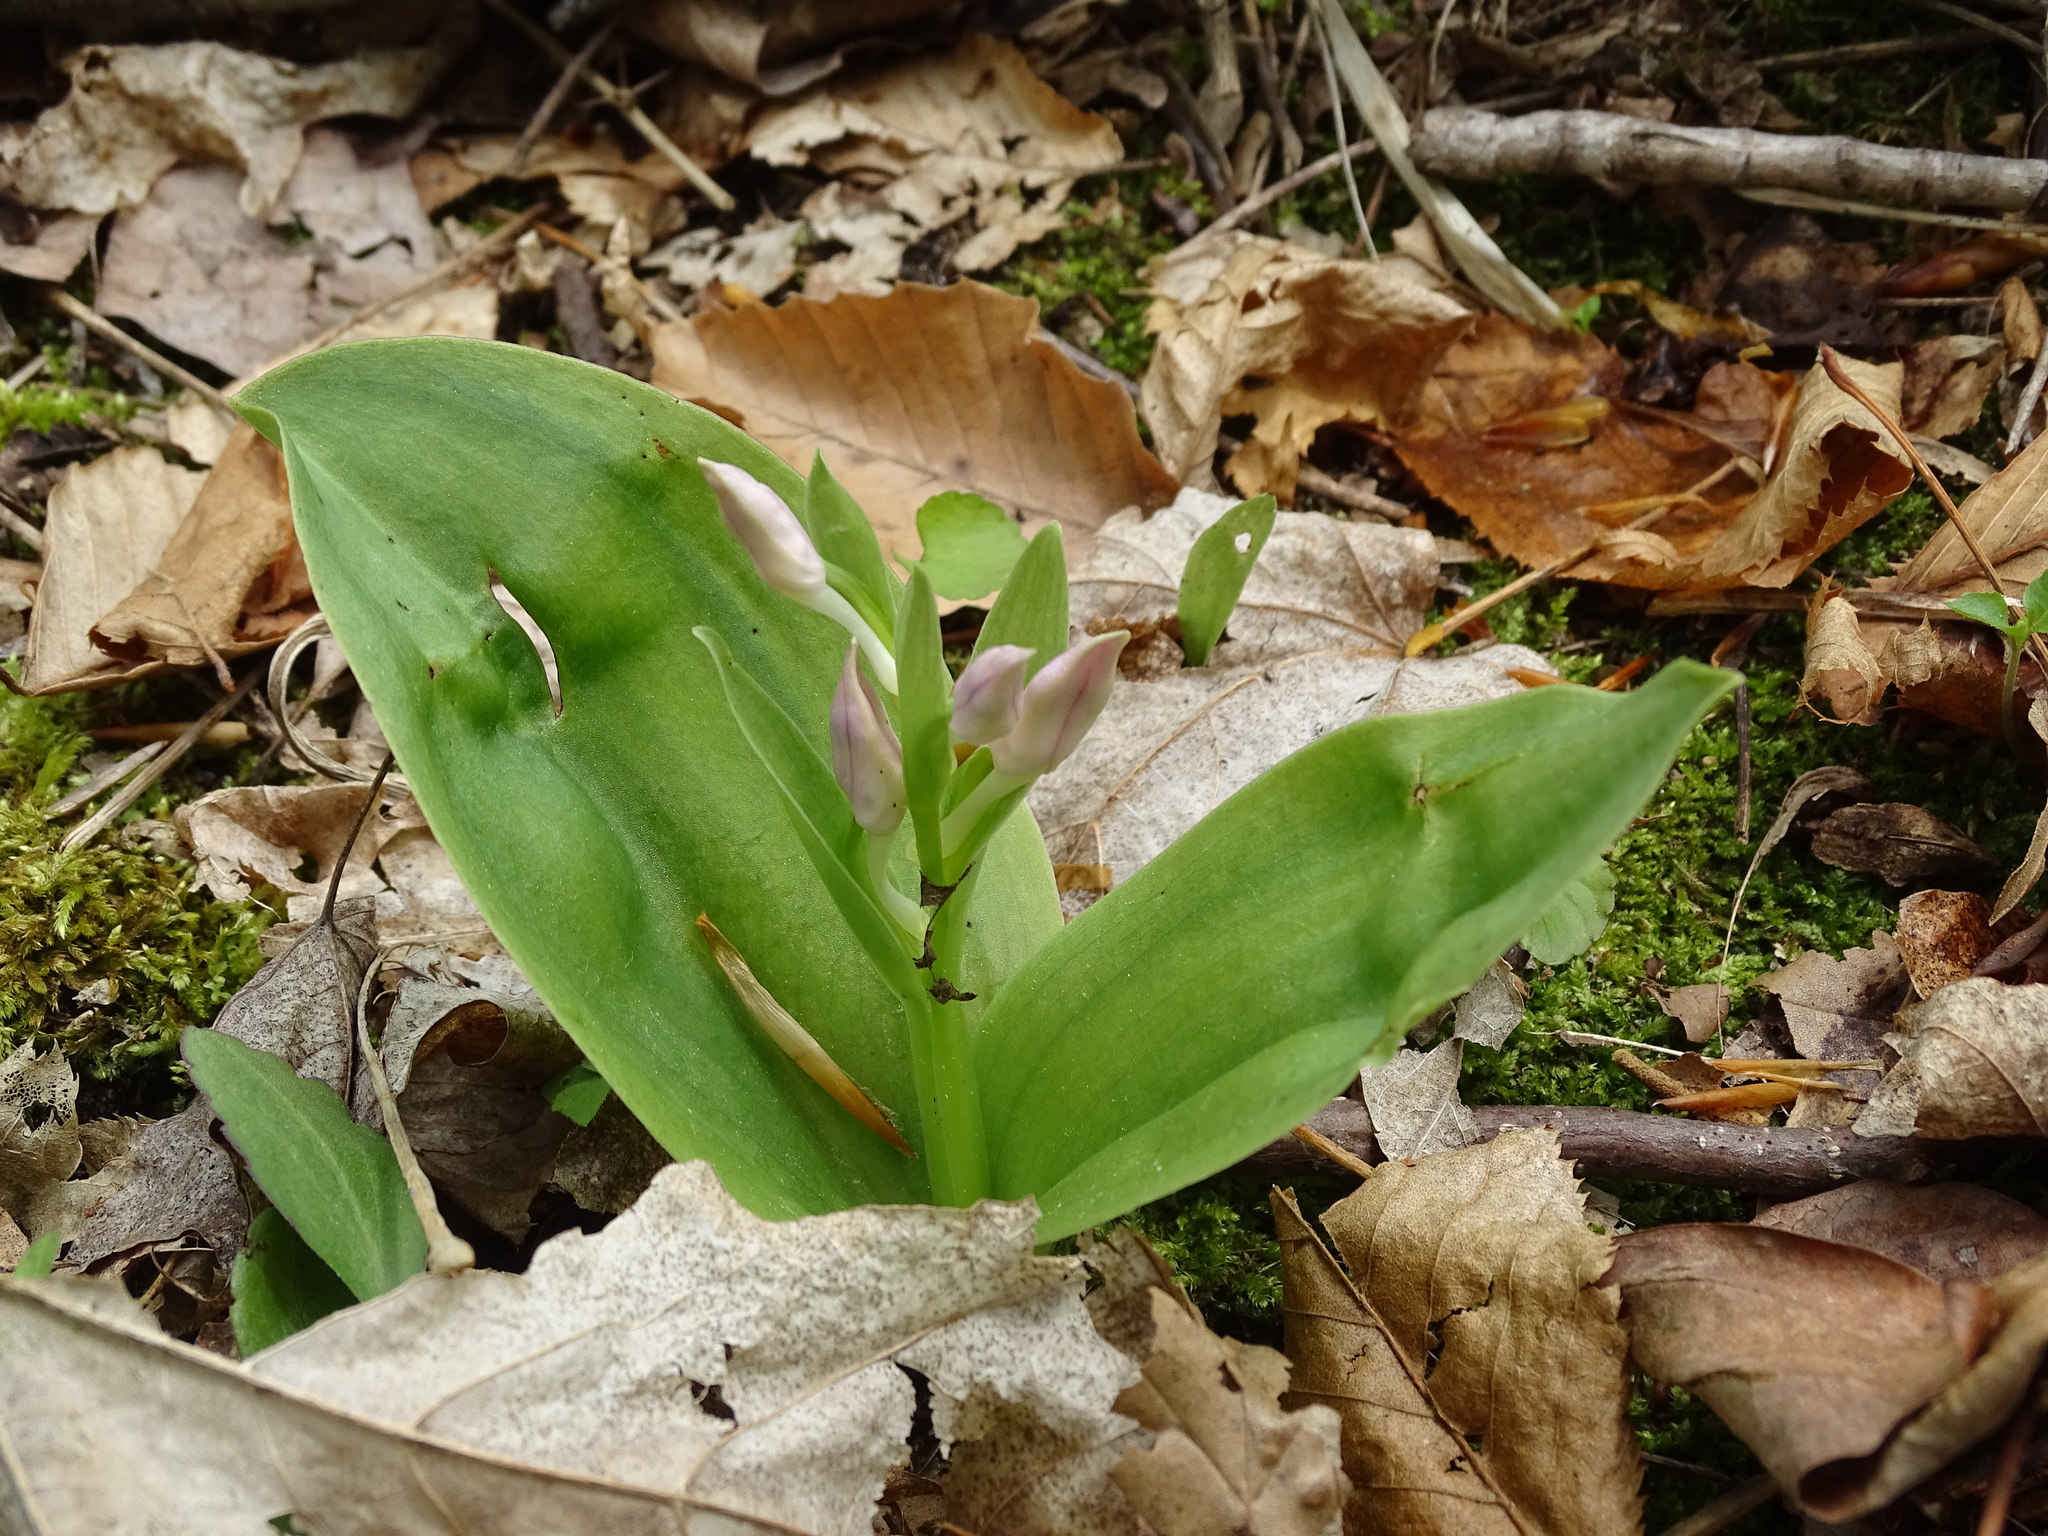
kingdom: Plantae
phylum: Tracheophyta
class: Liliopsida
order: Asparagales
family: Orchidaceae
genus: Galearis
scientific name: Galearis spectabilis
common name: Purple-hooded orchis
